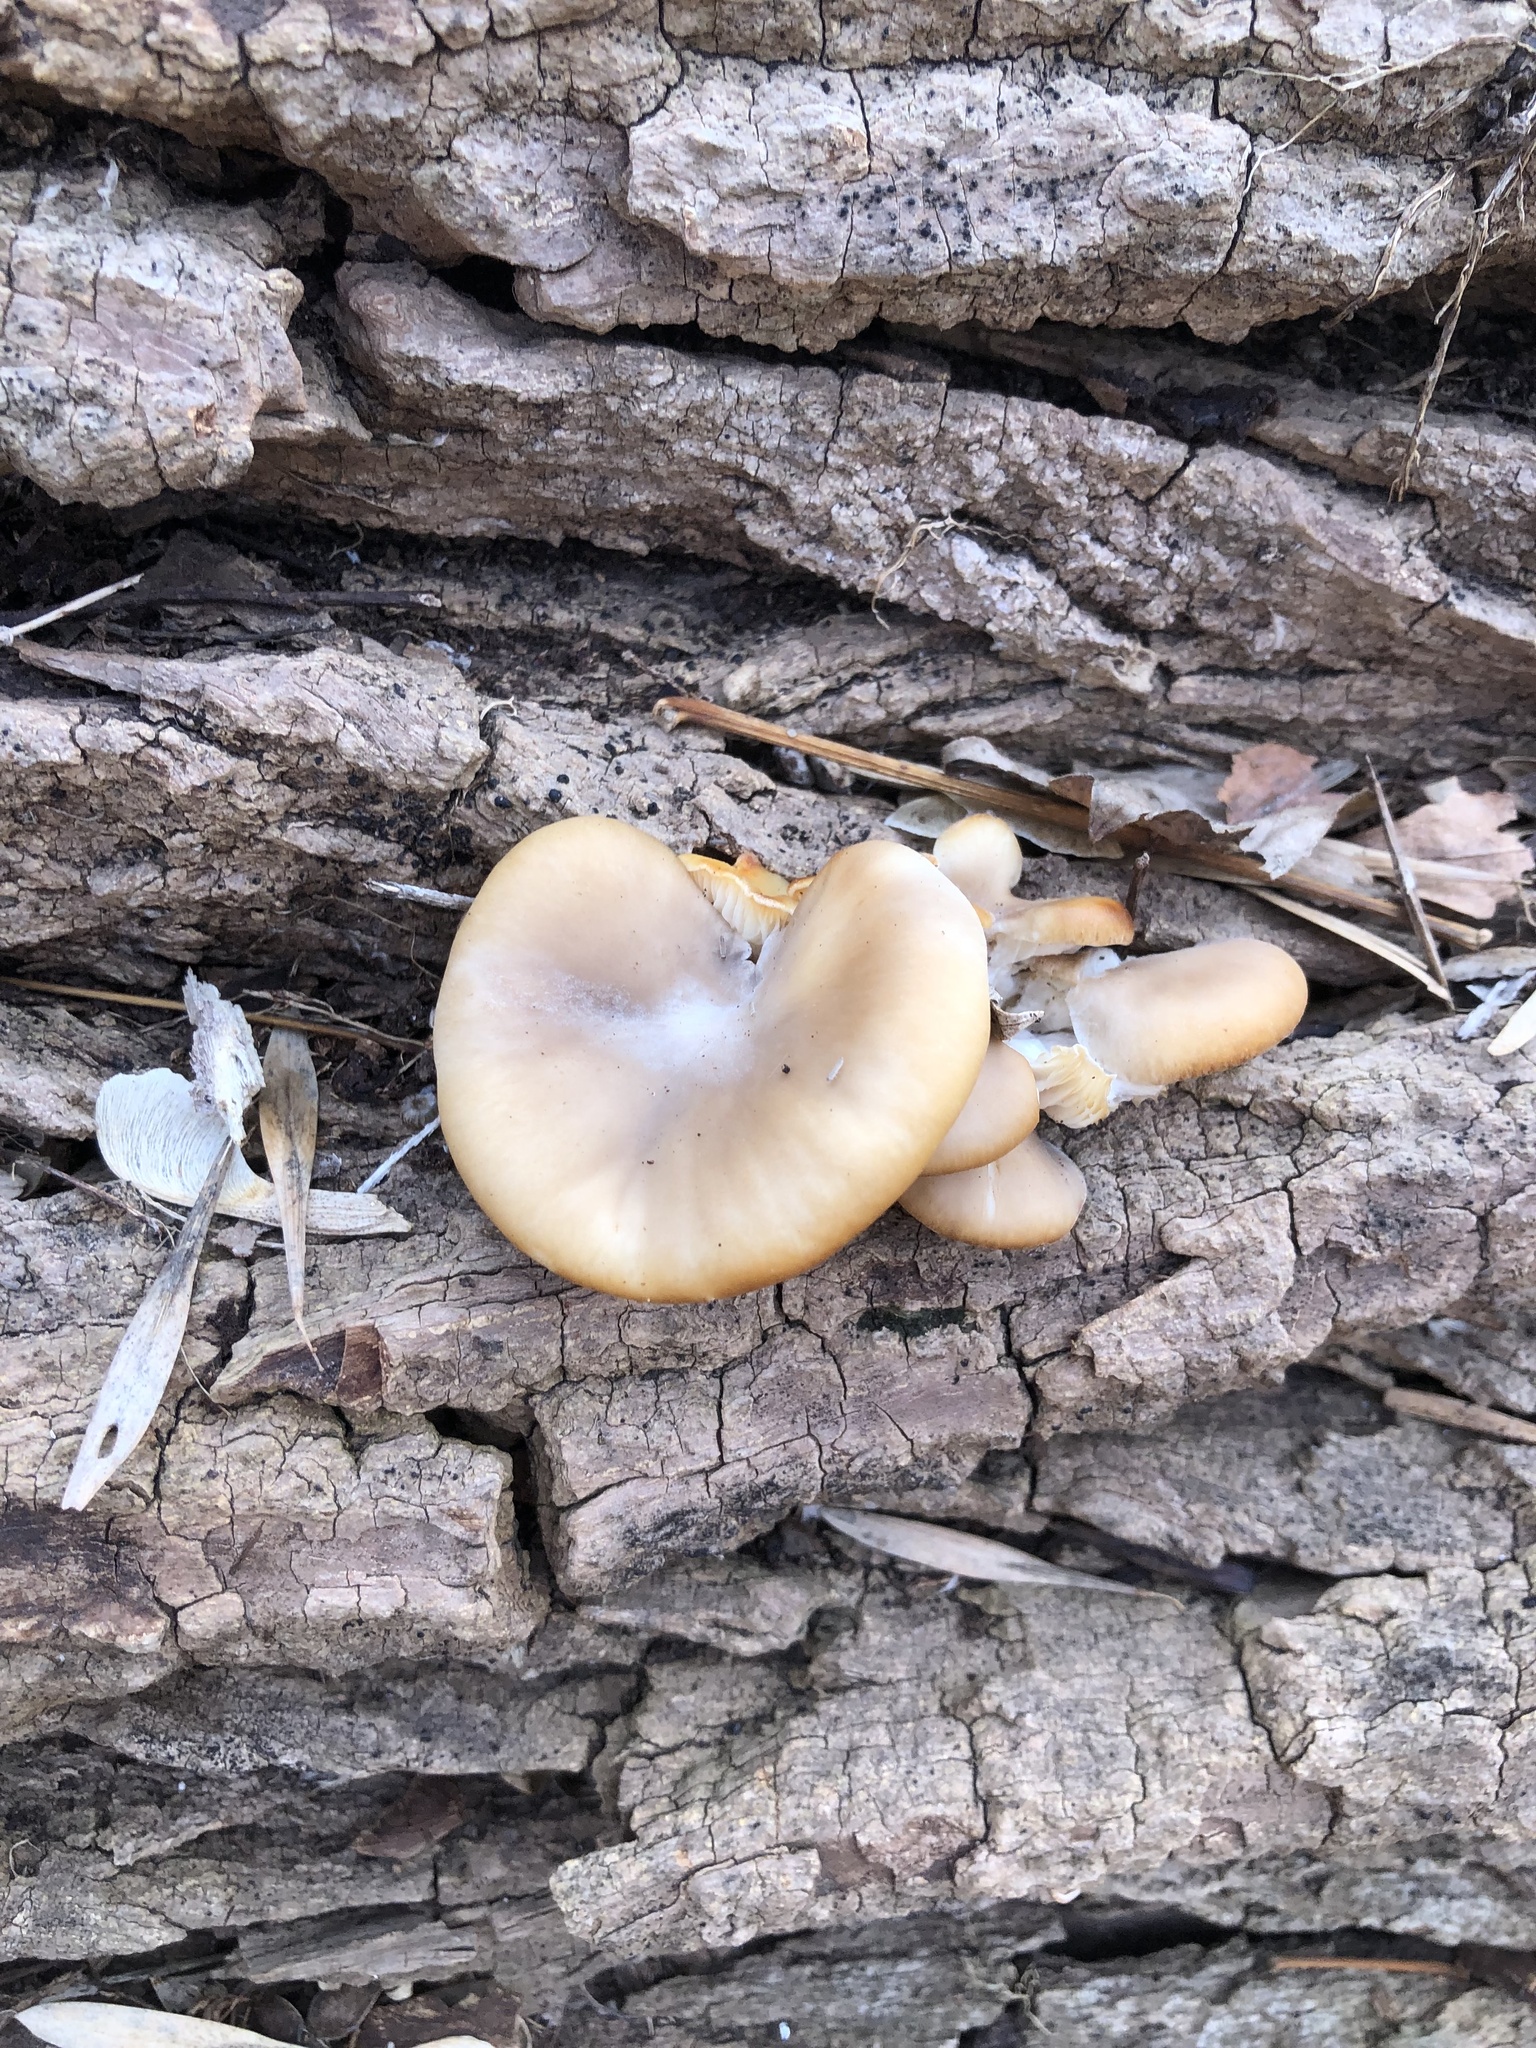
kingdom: Fungi
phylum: Basidiomycota
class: Agaricomycetes
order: Agaricales
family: Pleurotaceae
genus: Pleurotus
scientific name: Pleurotus ostreatus
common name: Oyster mushroom
